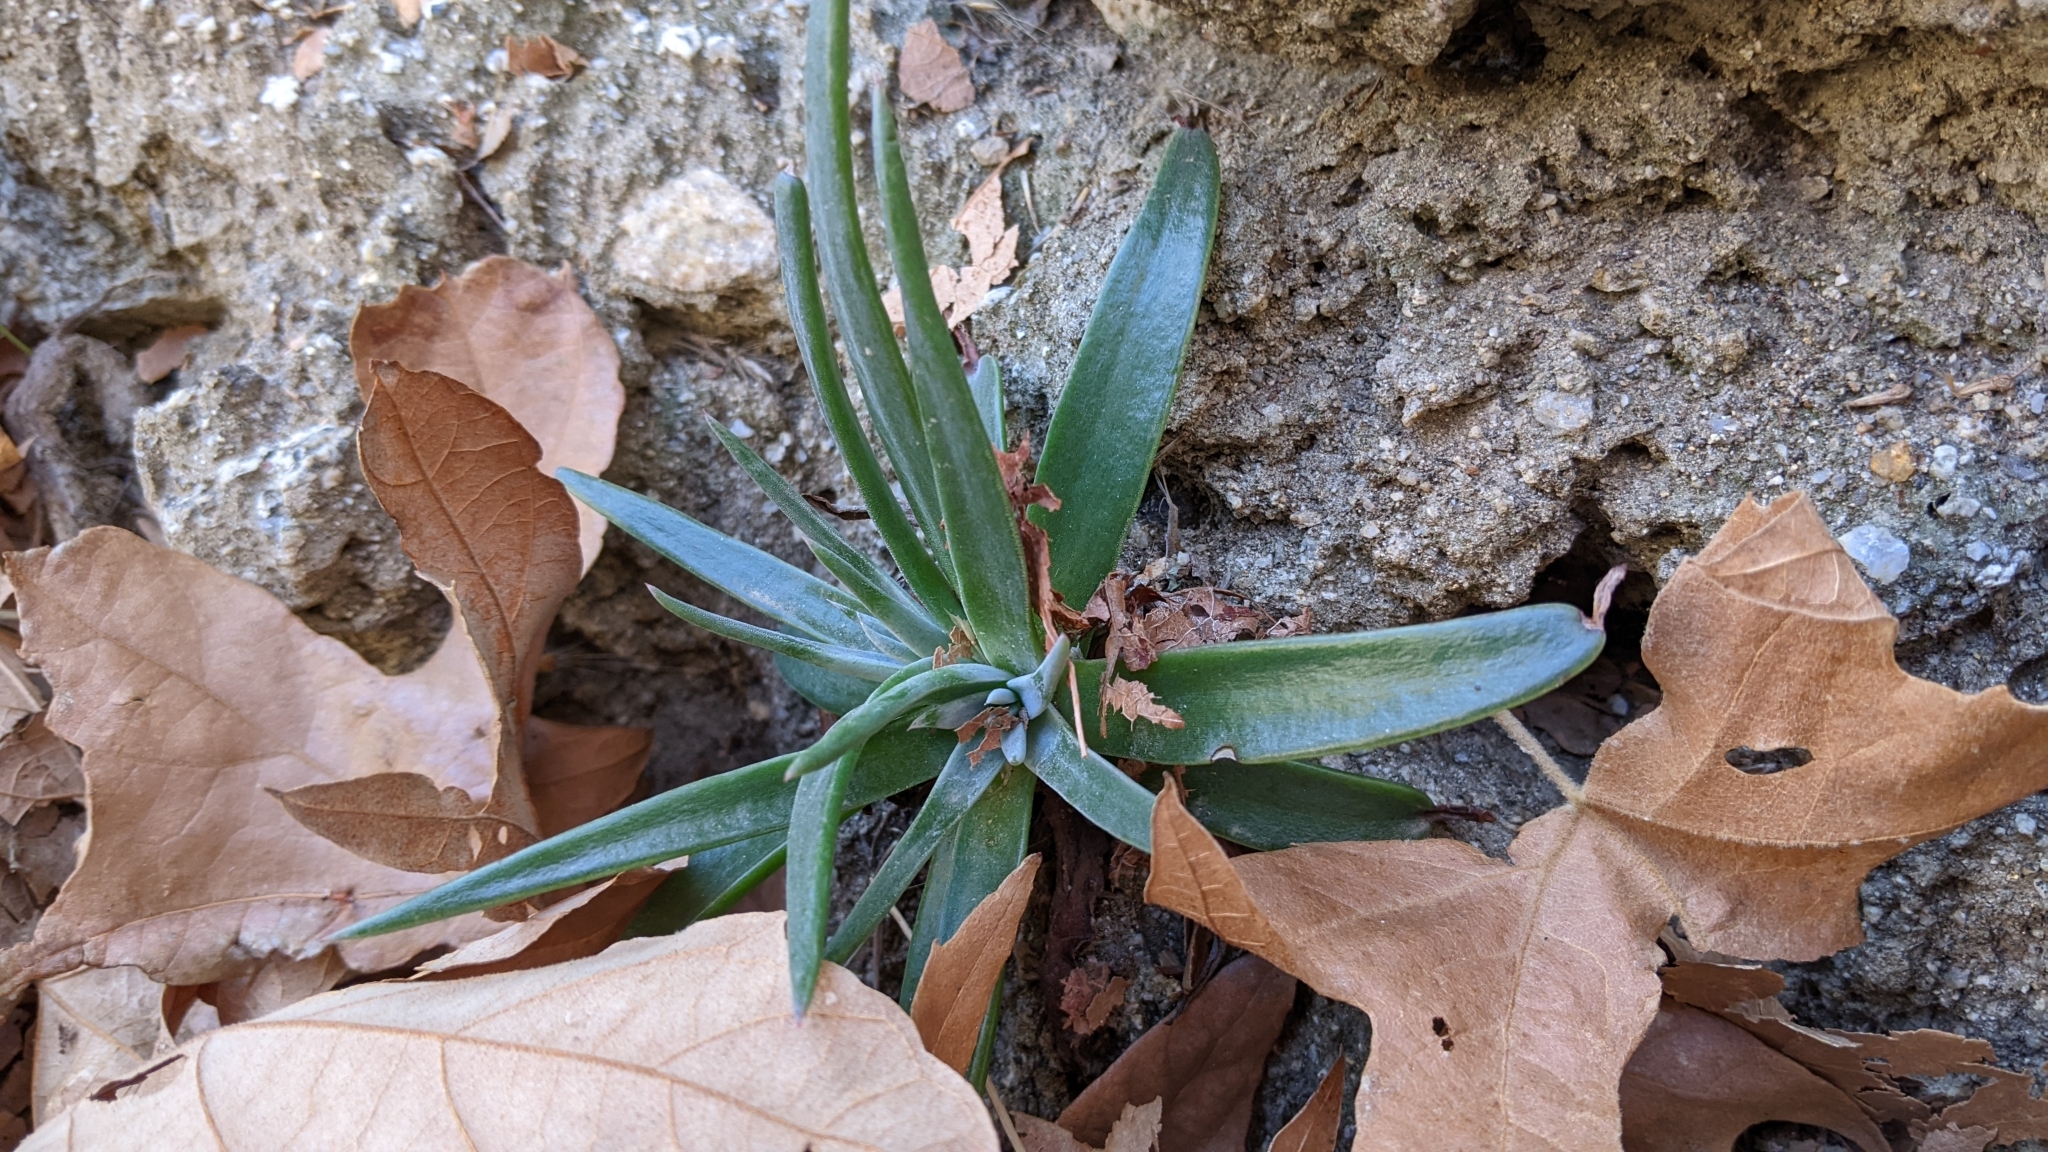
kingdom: Plantae
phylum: Tracheophyta
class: Magnoliopsida
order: Saxifragales
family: Crassulaceae
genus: Dudleya
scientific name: Dudleya saxosa
